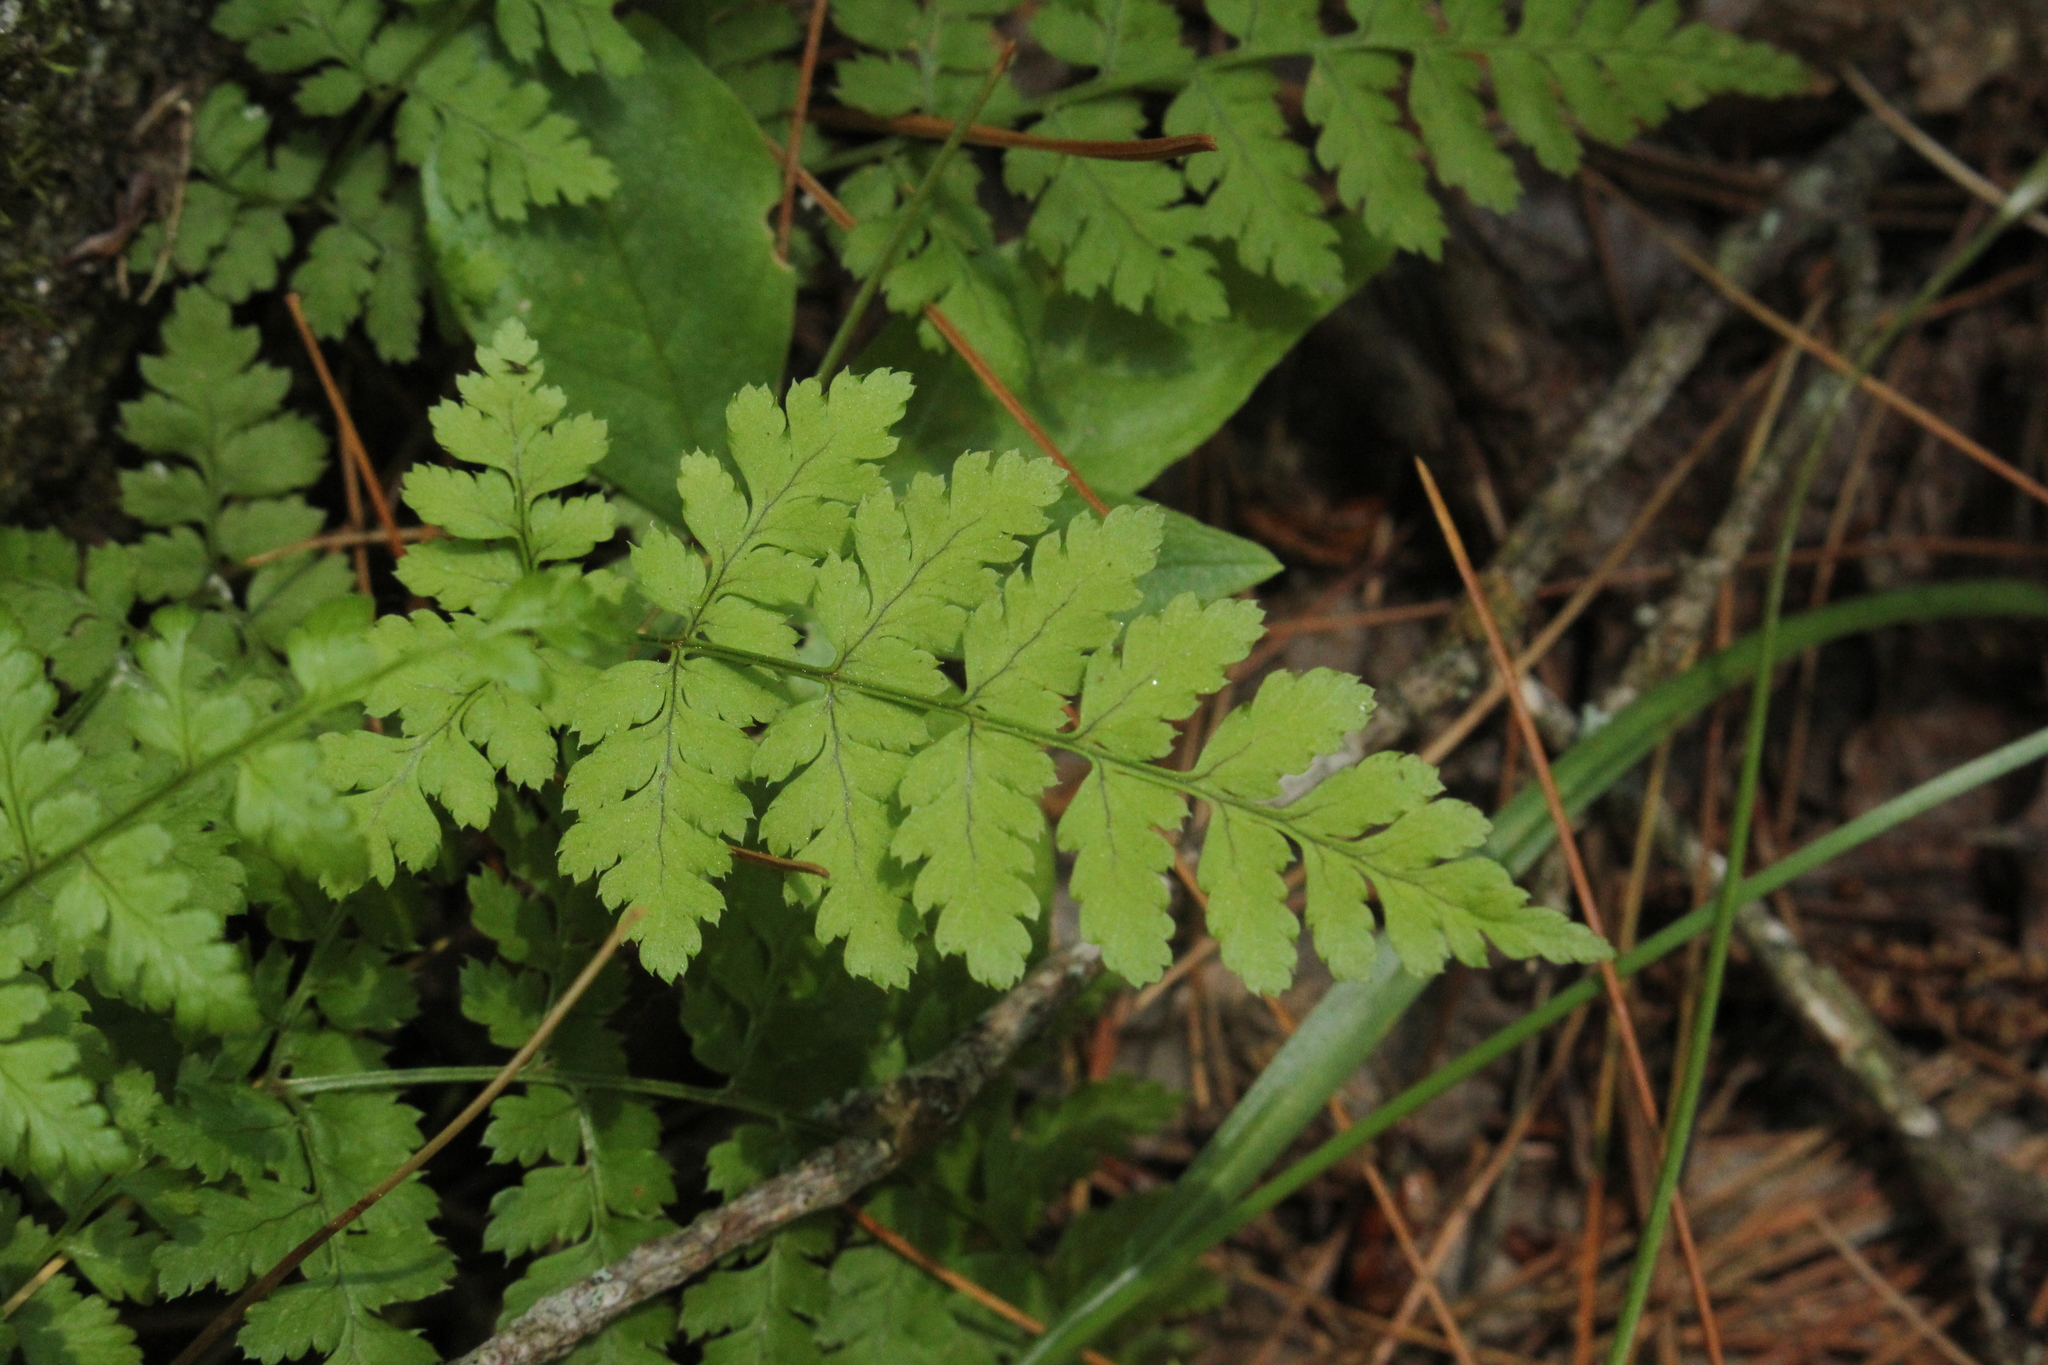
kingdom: Plantae
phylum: Tracheophyta
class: Polypodiopsida
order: Polypodiales
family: Dryopteridaceae
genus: Dryopteris
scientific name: Dryopteris carthusiana
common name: Narrow buckler-fern
